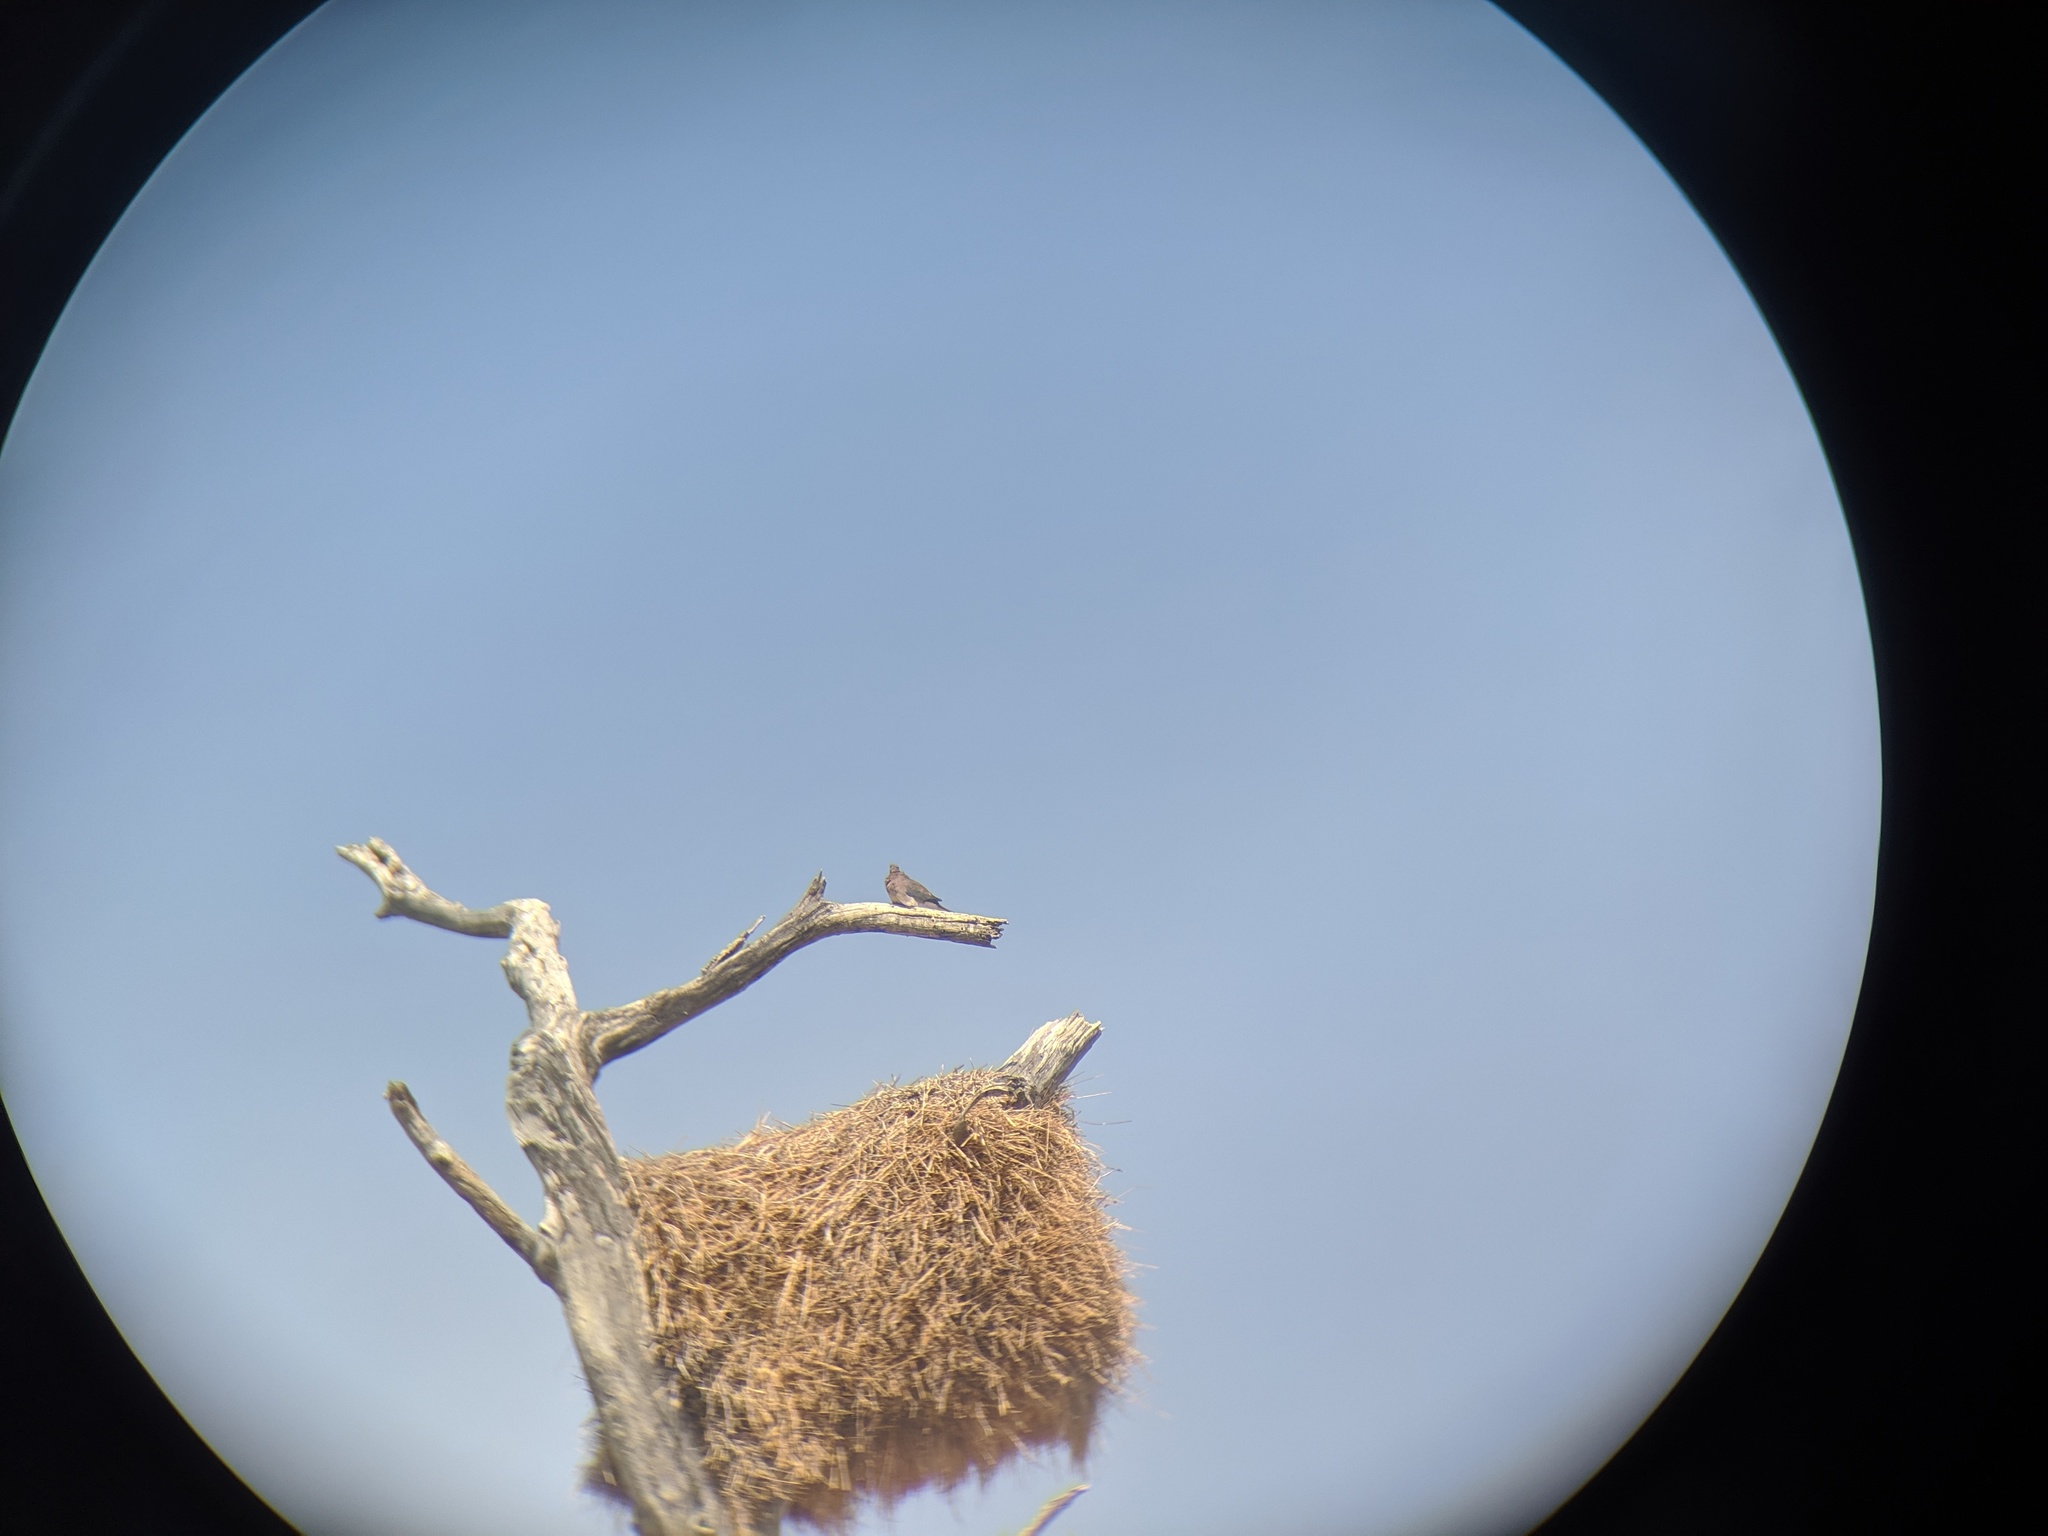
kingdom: Animalia
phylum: Chordata
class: Aves
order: Passeriformes
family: Passeridae
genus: Philetairus
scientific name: Philetairus socius
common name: Sociable weaver
